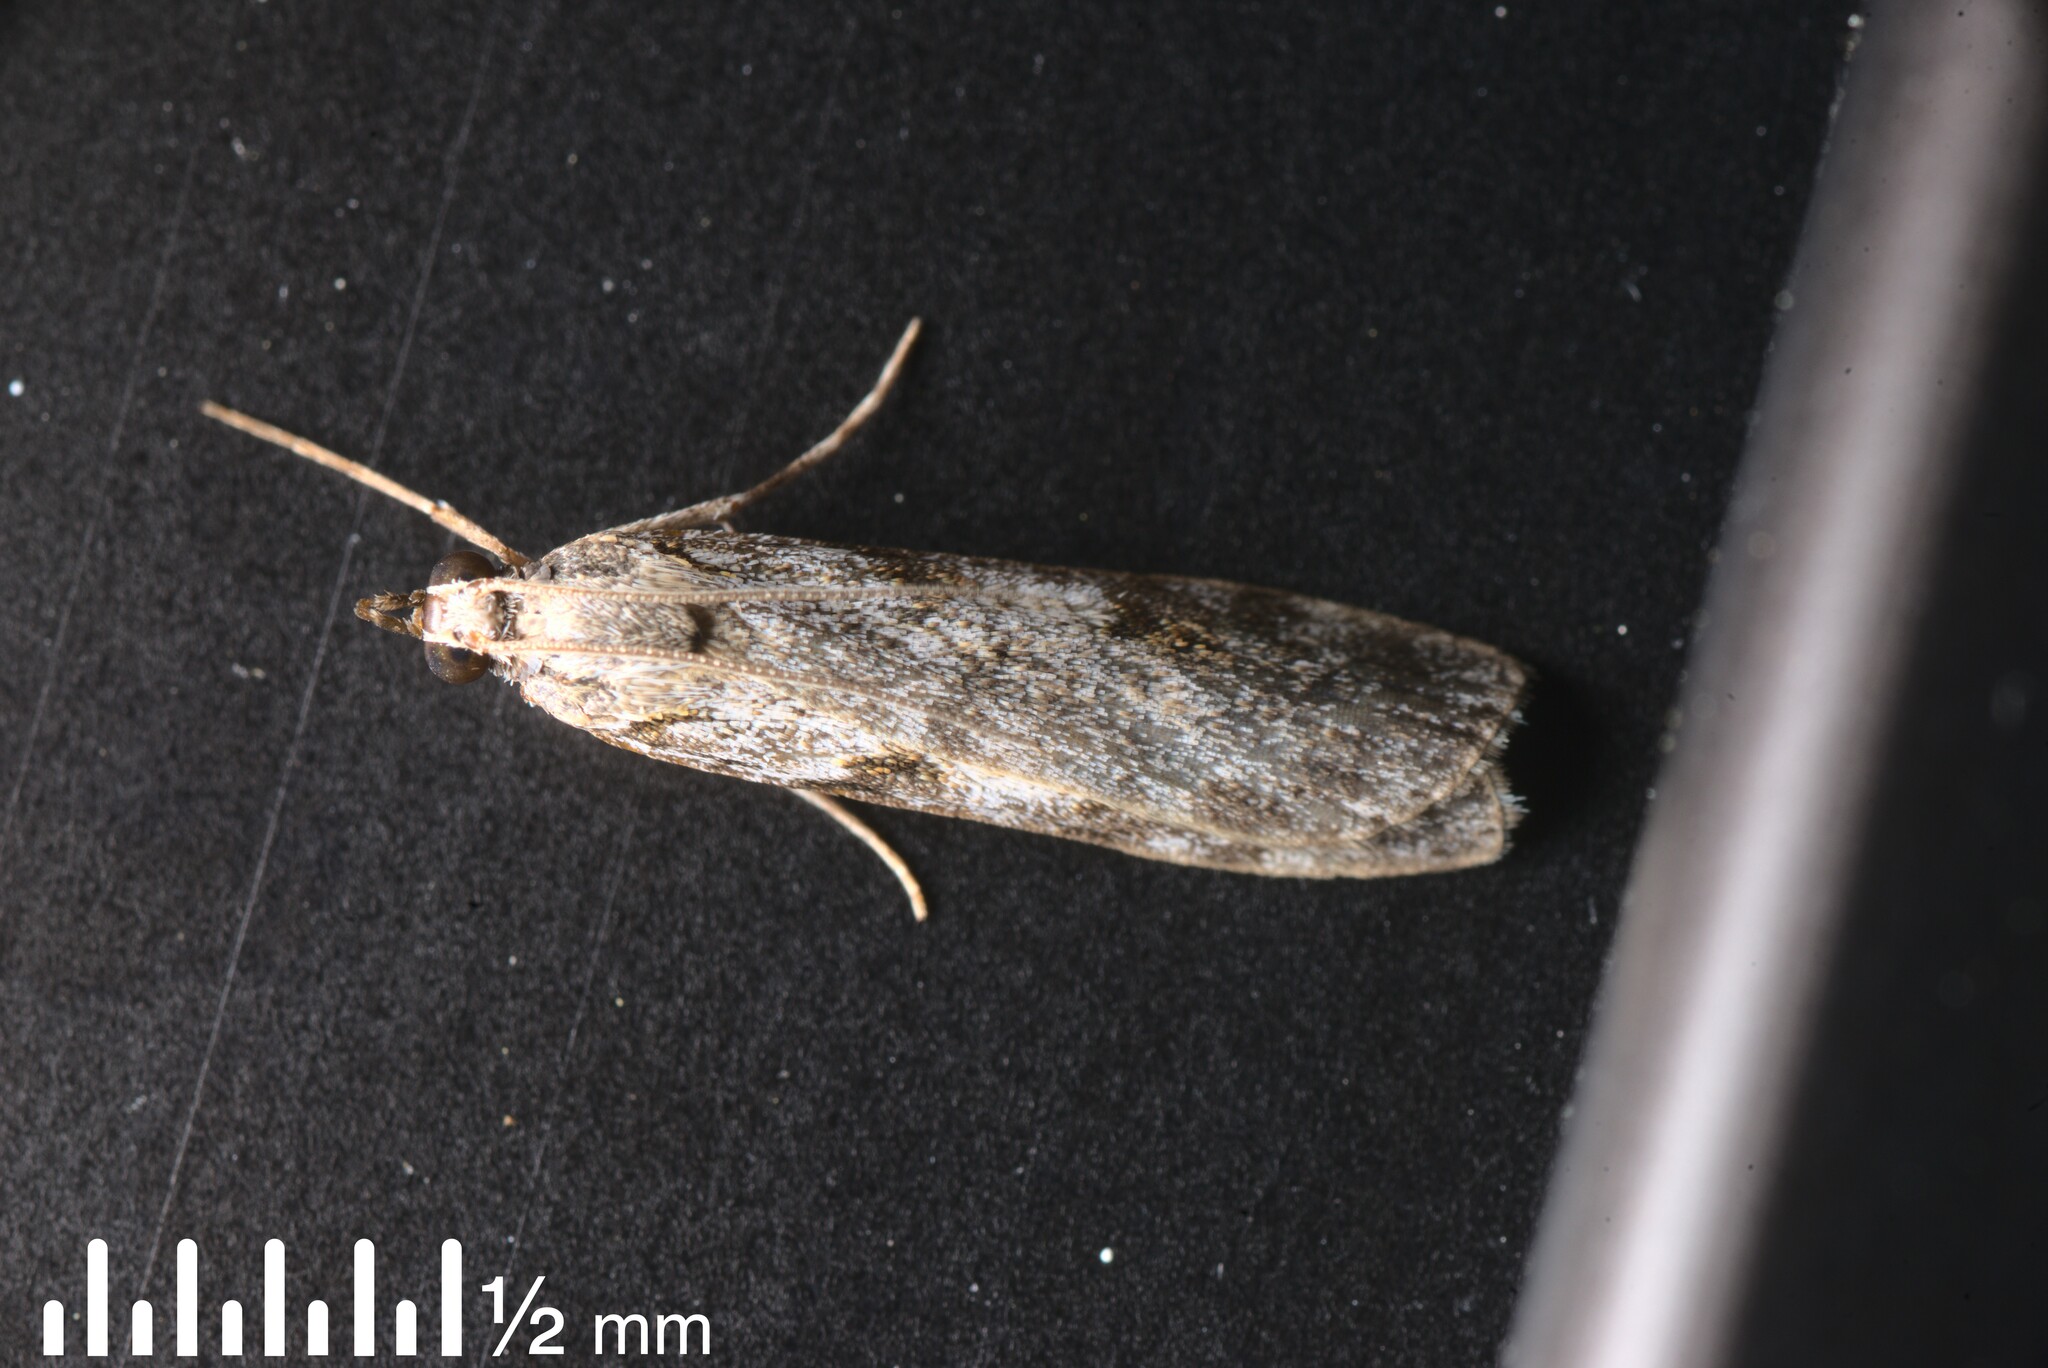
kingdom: Animalia
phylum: Arthropoda
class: Insecta
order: Lepidoptera
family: Crambidae
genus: Scoparia
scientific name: Scoparia halopis
